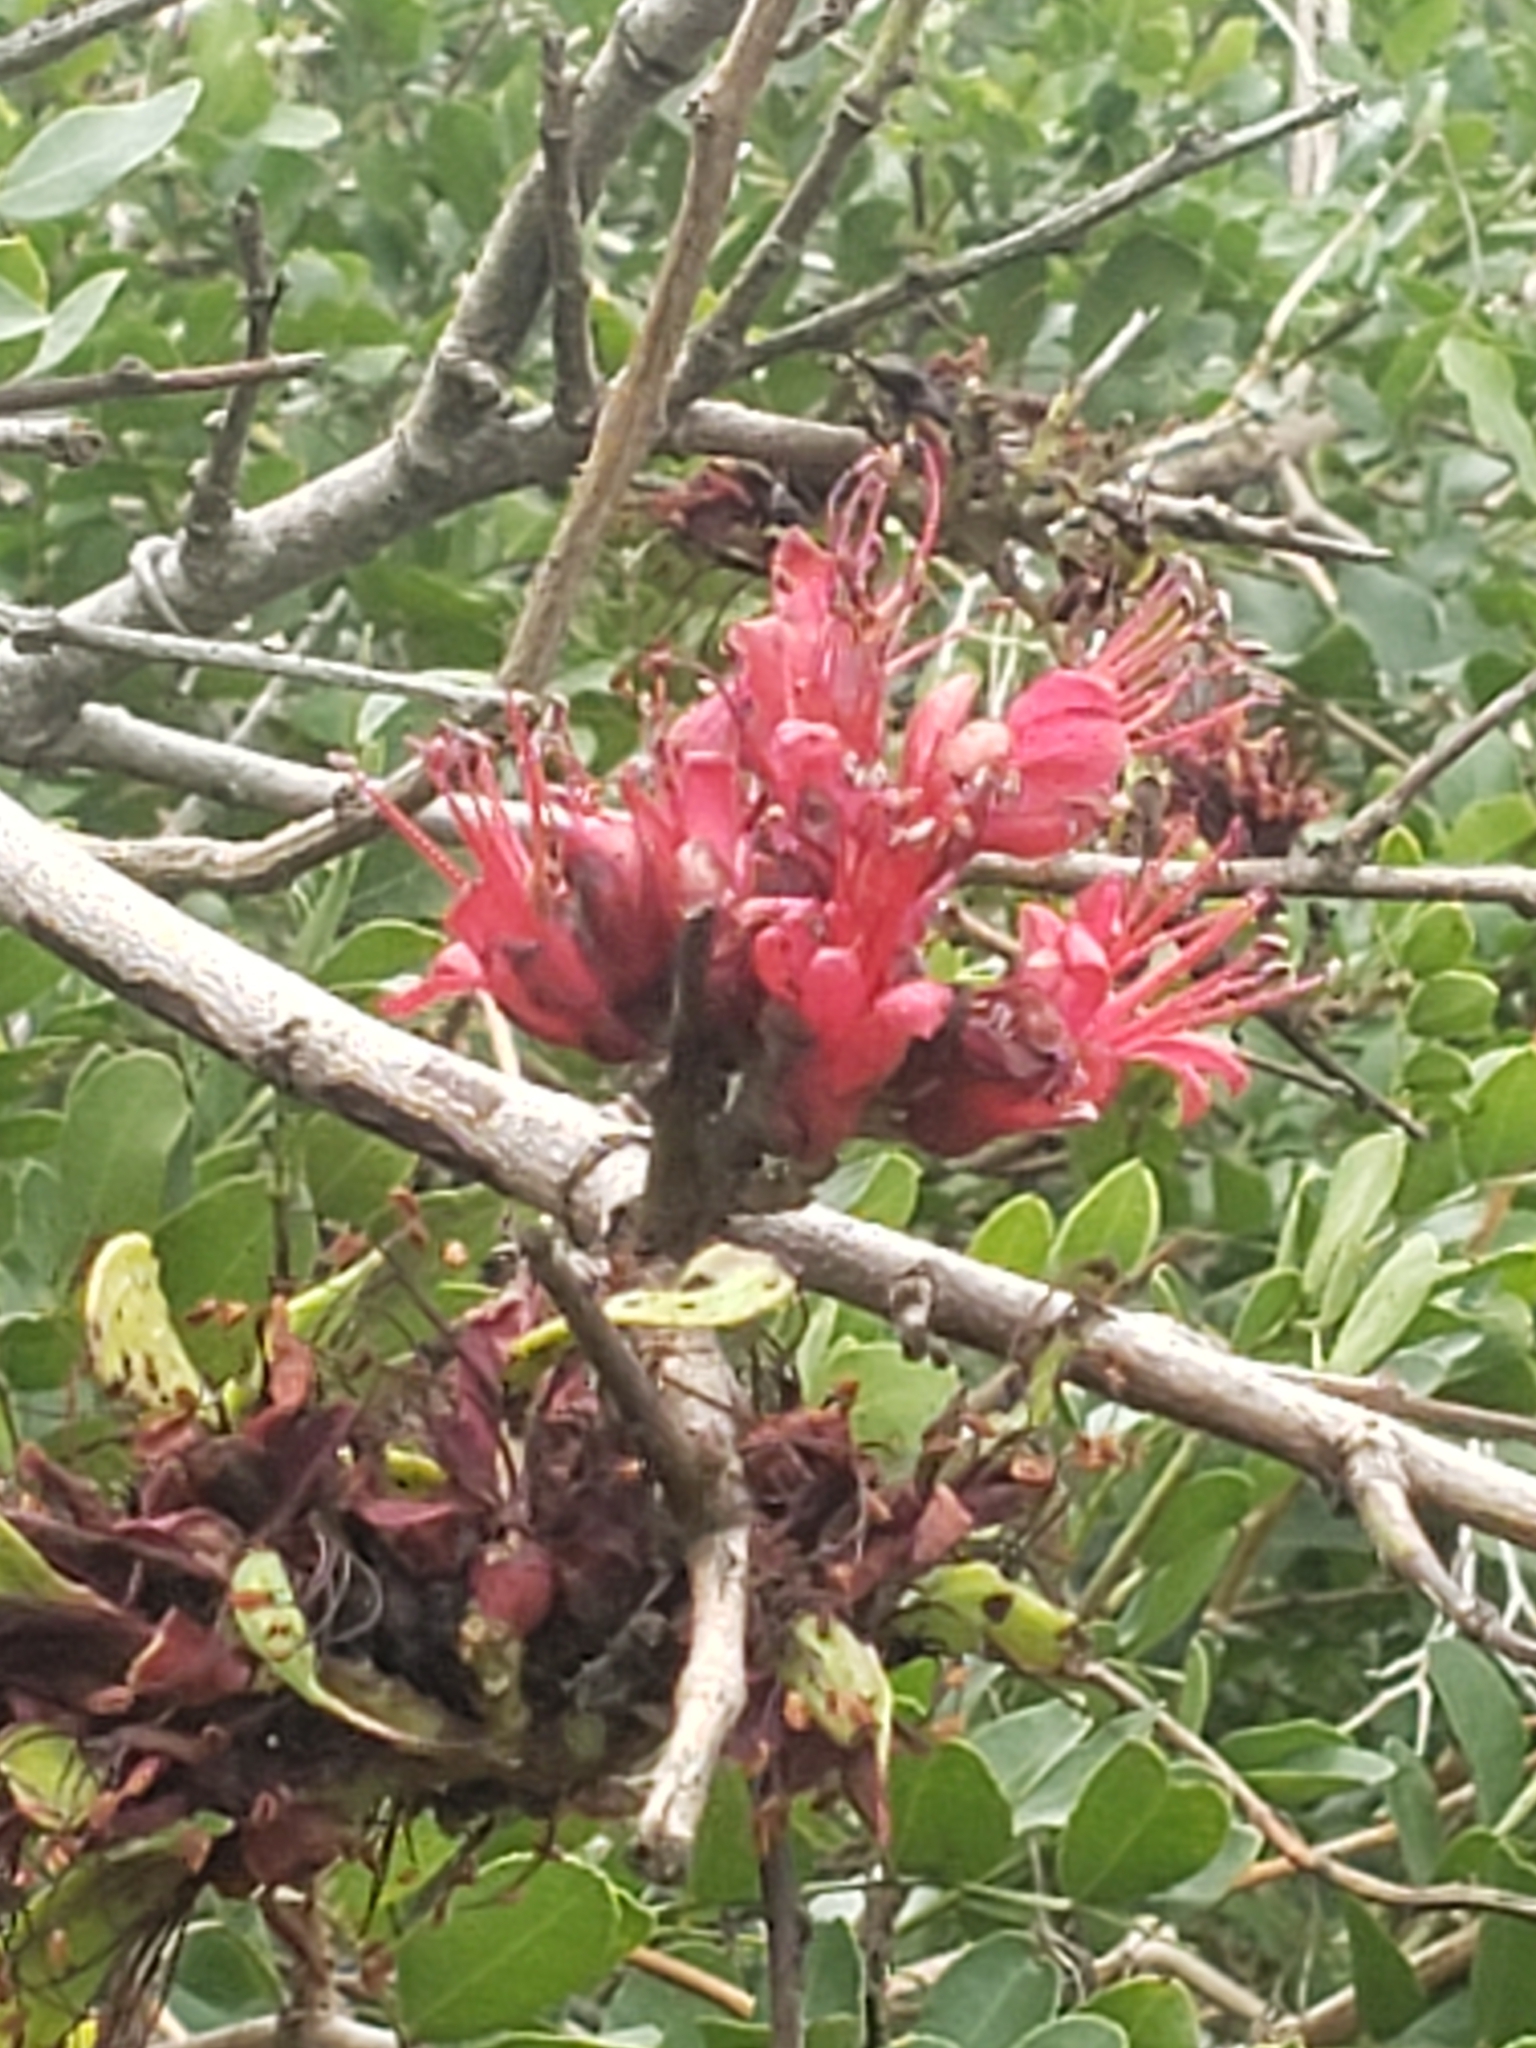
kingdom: Plantae
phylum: Tracheophyta
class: Magnoliopsida
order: Fabales
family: Fabaceae
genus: Schotia
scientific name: Schotia capitata
